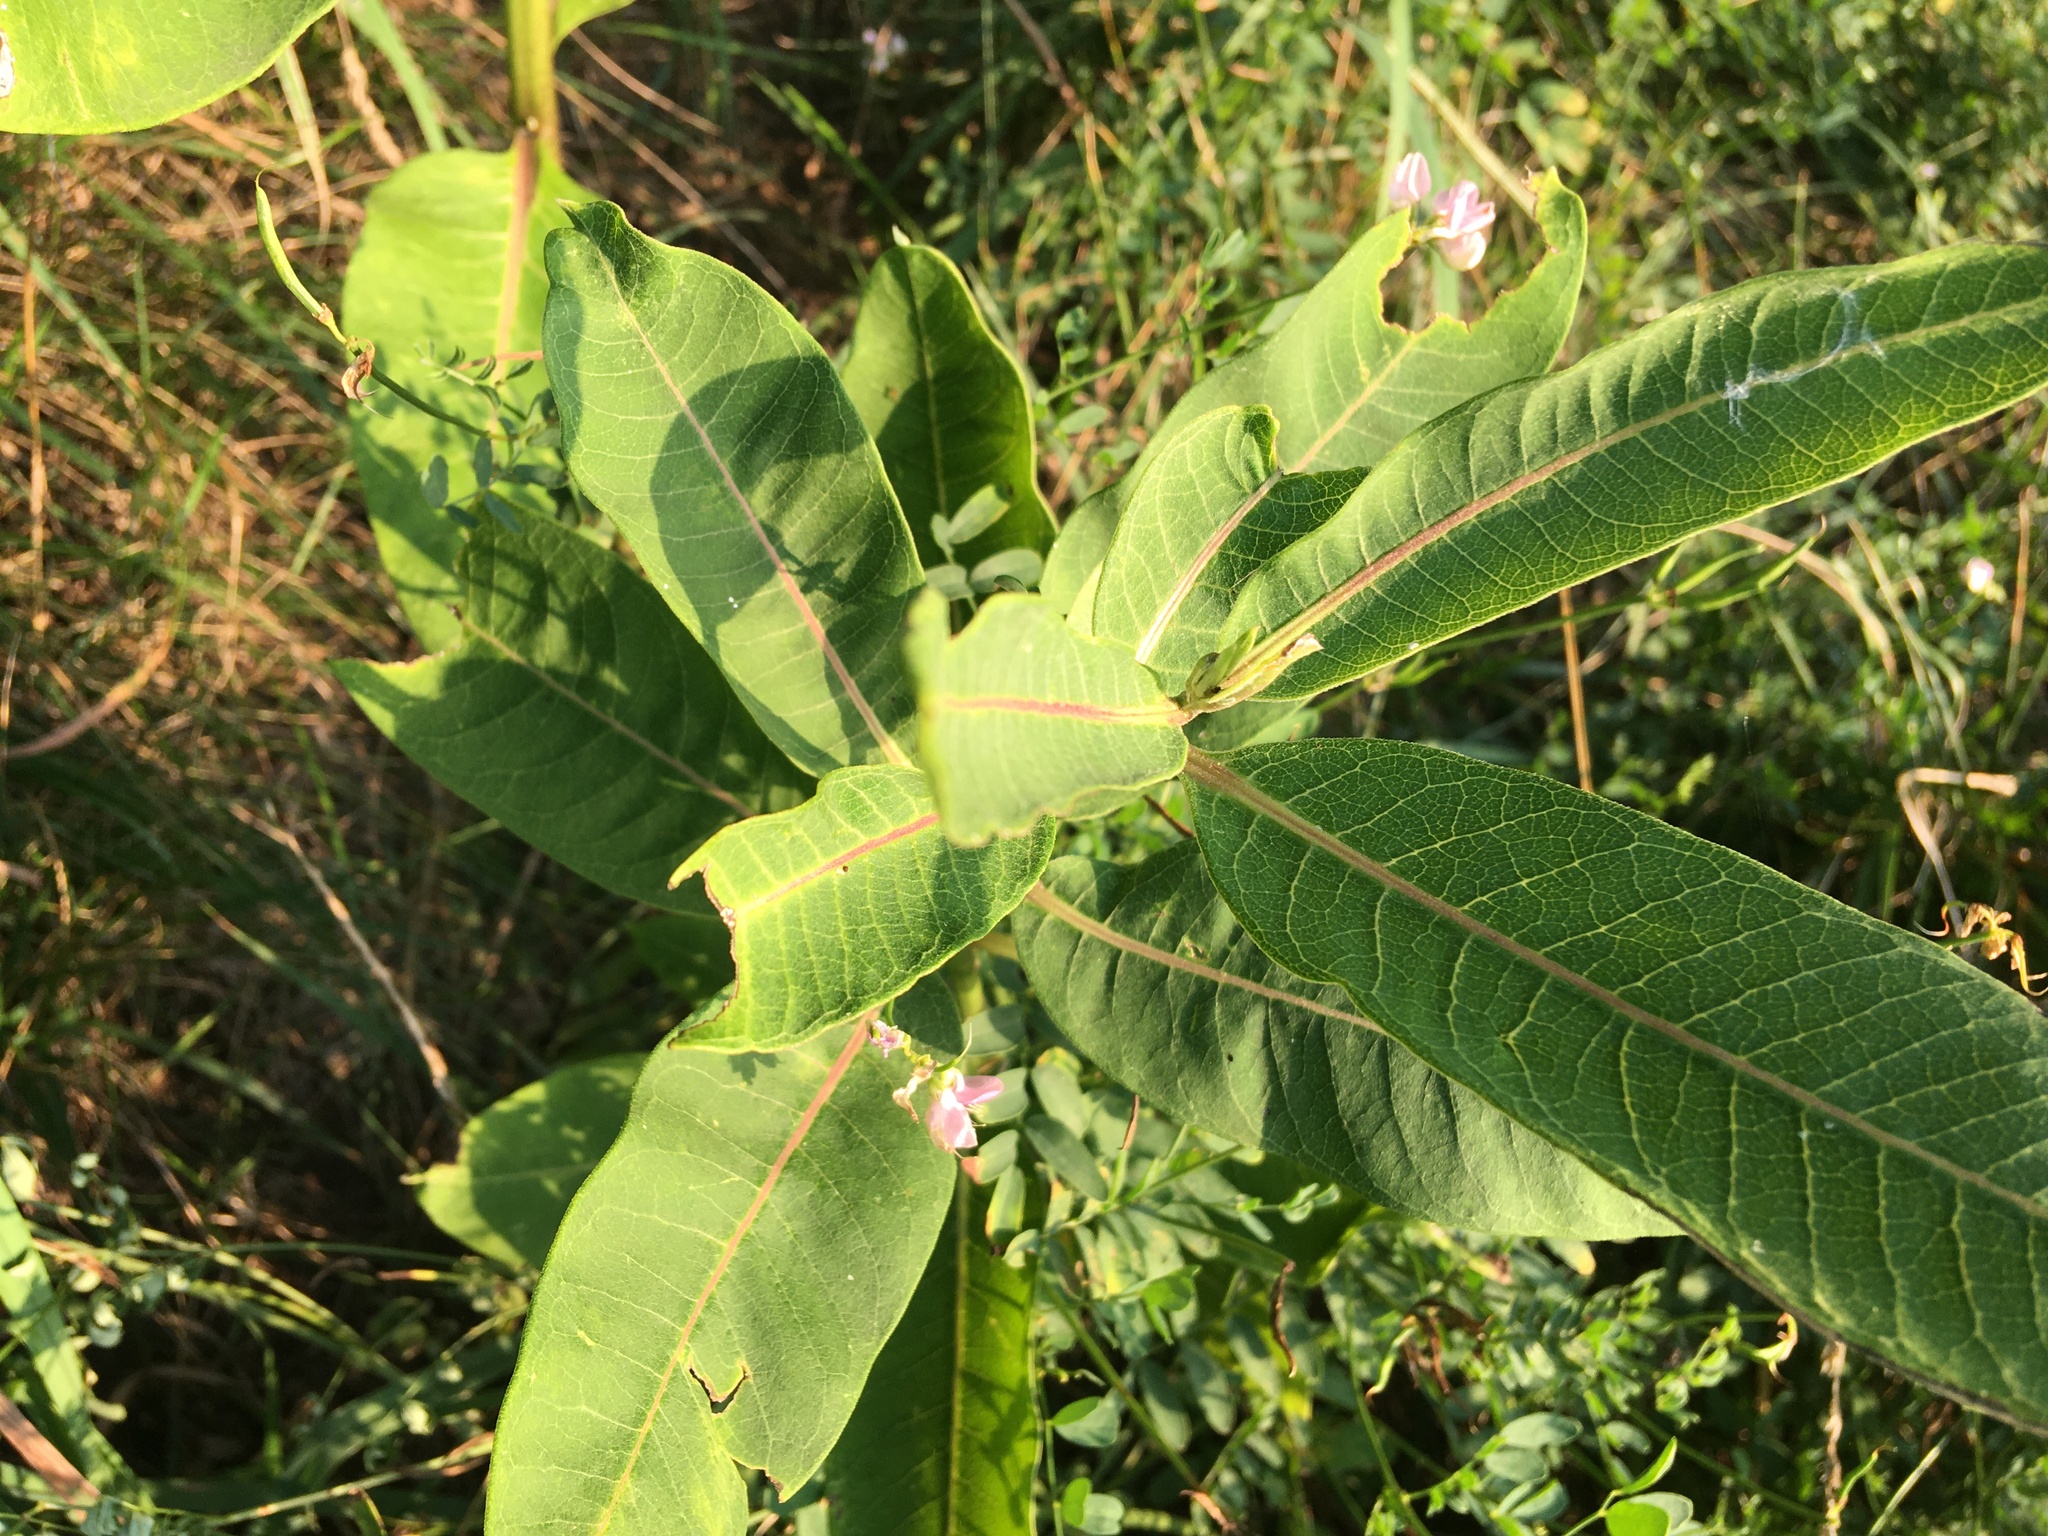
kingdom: Plantae
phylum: Tracheophyta
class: Magnoliopsida
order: Gentianales
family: Apocynaceae
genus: Asclepias
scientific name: Asclepias syriaca
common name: Common milkweed
